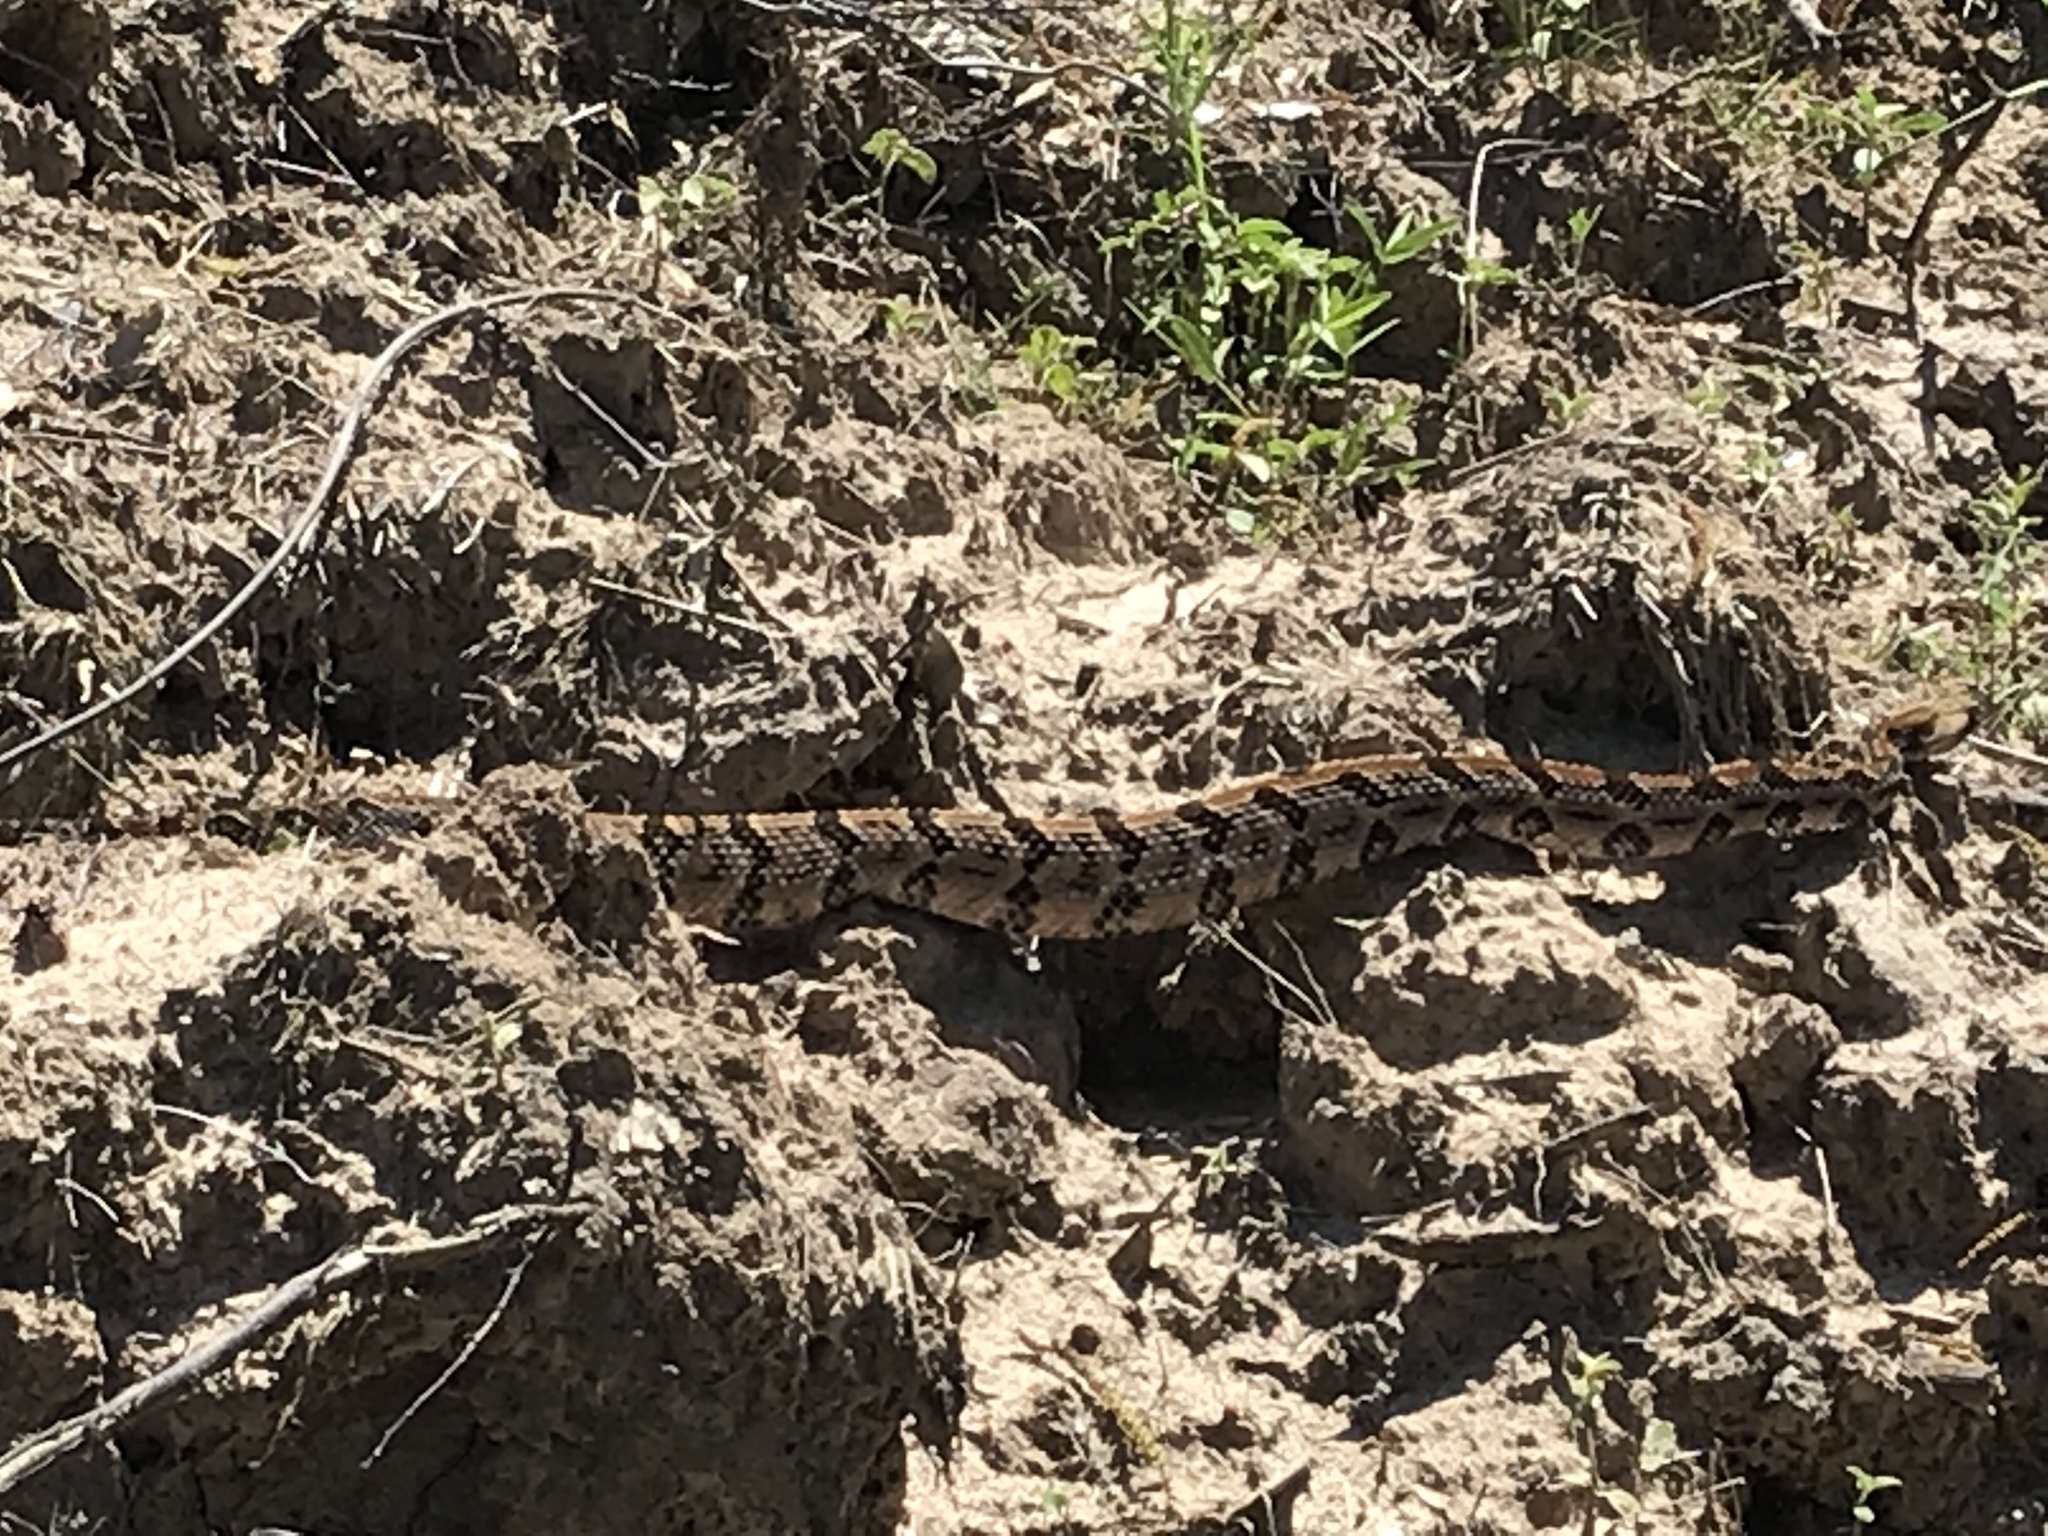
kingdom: Animalia
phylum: Chordata
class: Squamata
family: Viperidae
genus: Crotalus
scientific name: Crotalus horridus
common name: Timber rattlesnake
